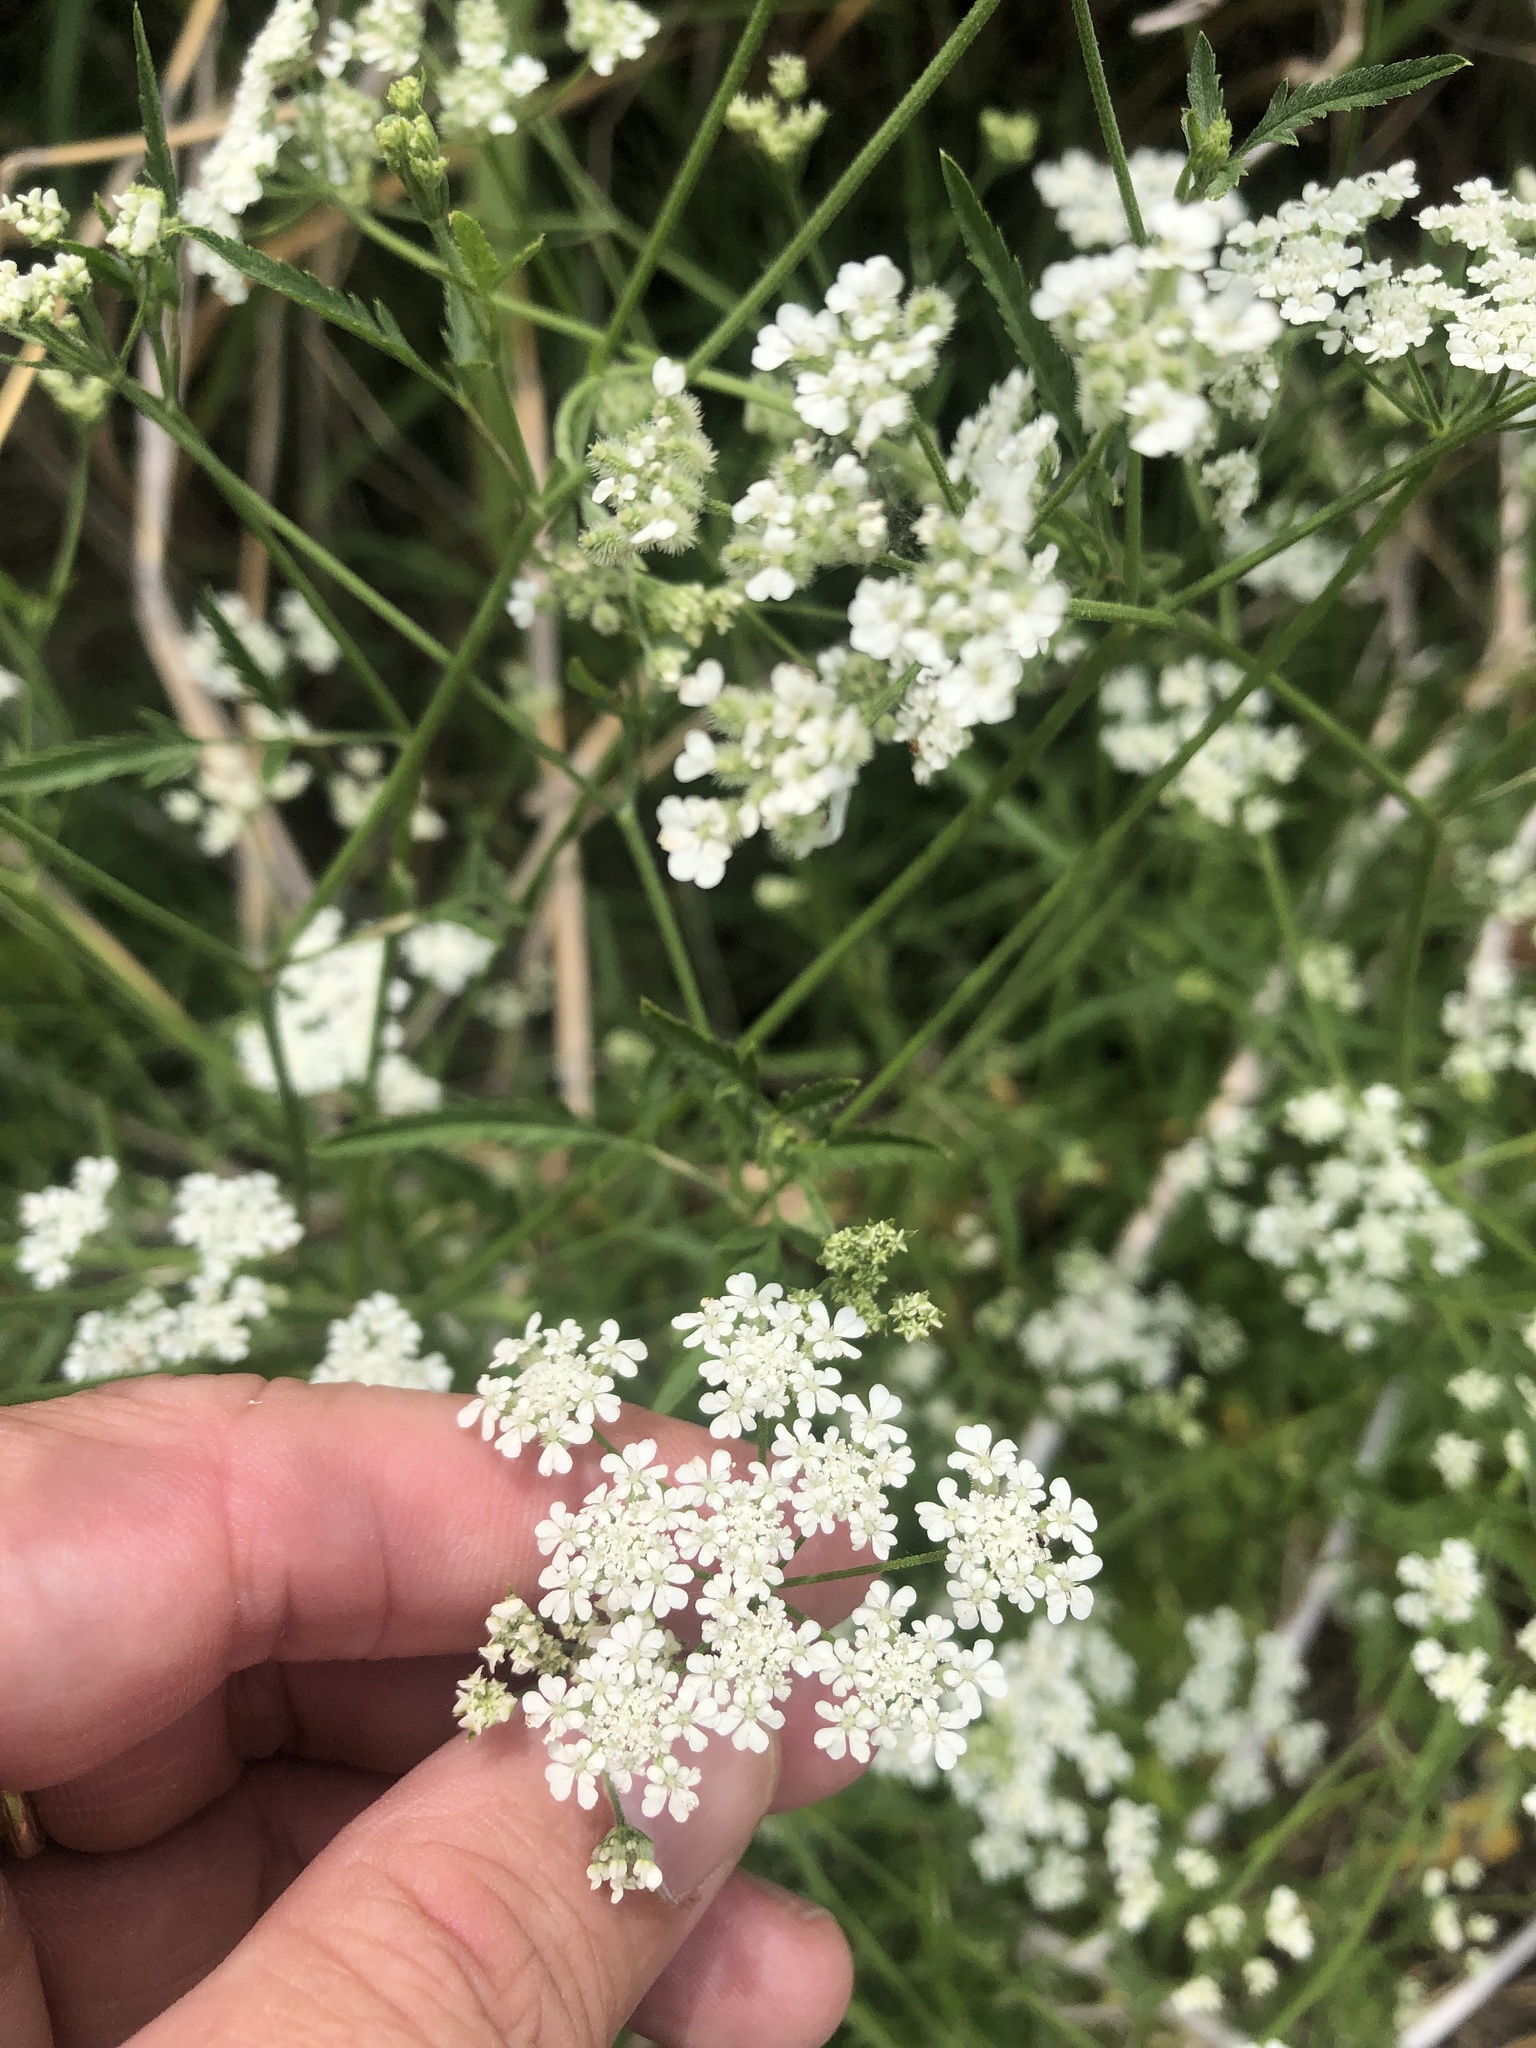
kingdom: Plantae
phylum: Tracheophyta
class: Magnoliopsida
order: Apiales
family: Apiaceae
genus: Torilis
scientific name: Torilis arvensis
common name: Spreading hedge-parsley
